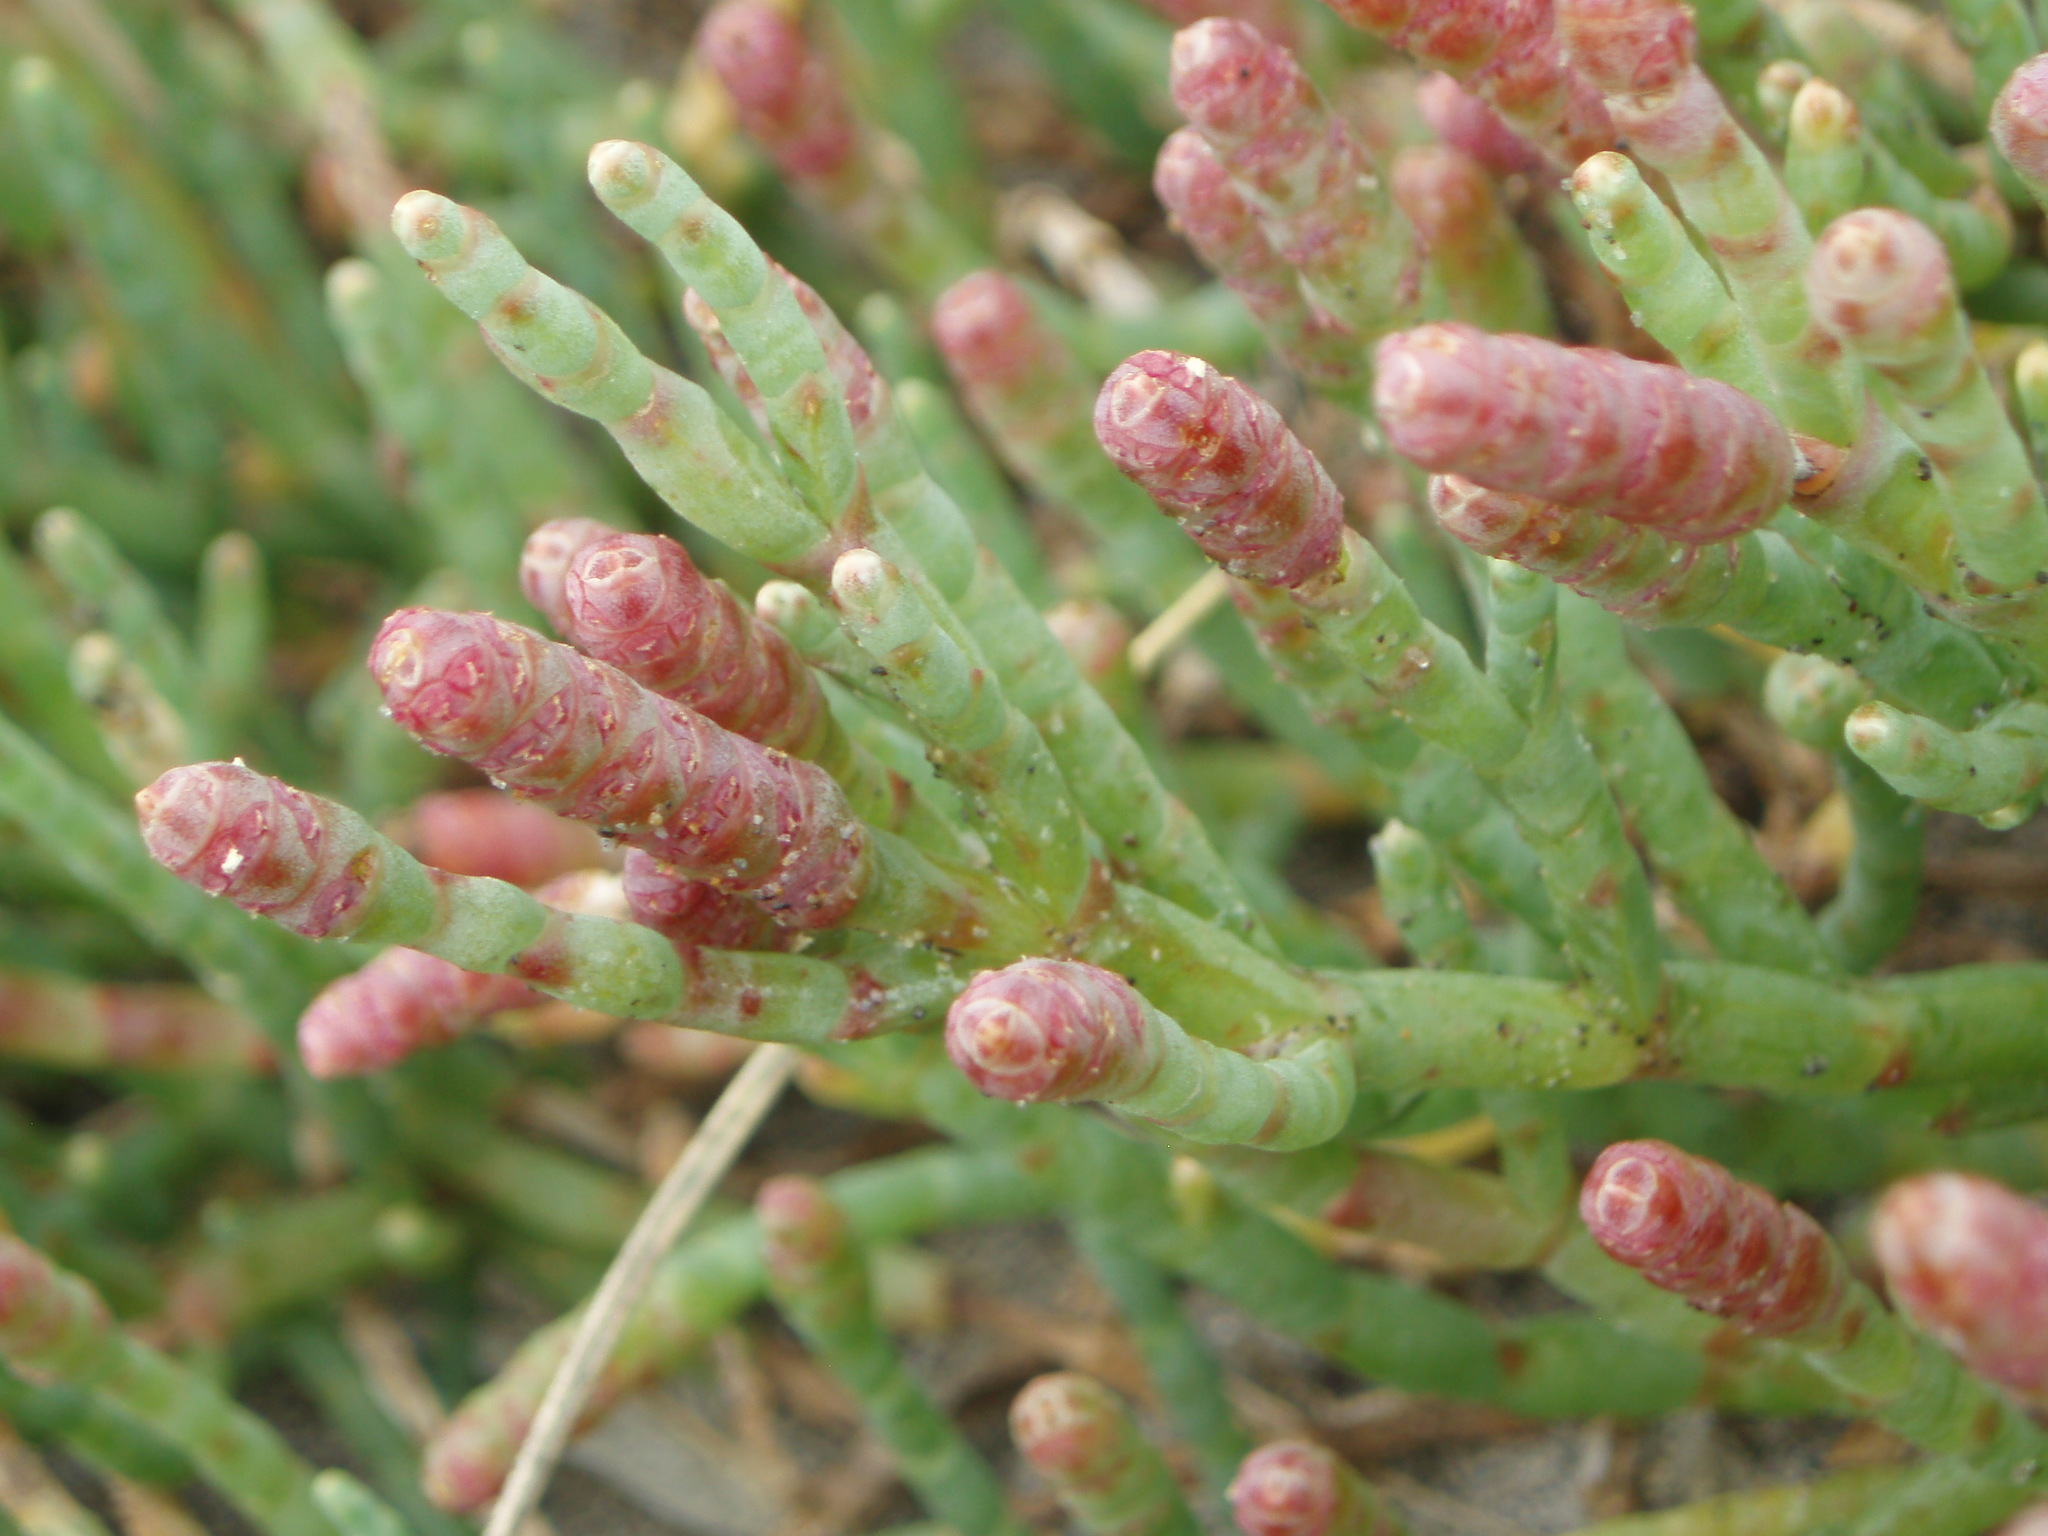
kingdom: Plantae
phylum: Tracheophyta
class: Magnoliopsida
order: Caryophyllales
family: Amaranthaceae
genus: Salicornia
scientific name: Salicornia perennis
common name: Chicken claws
